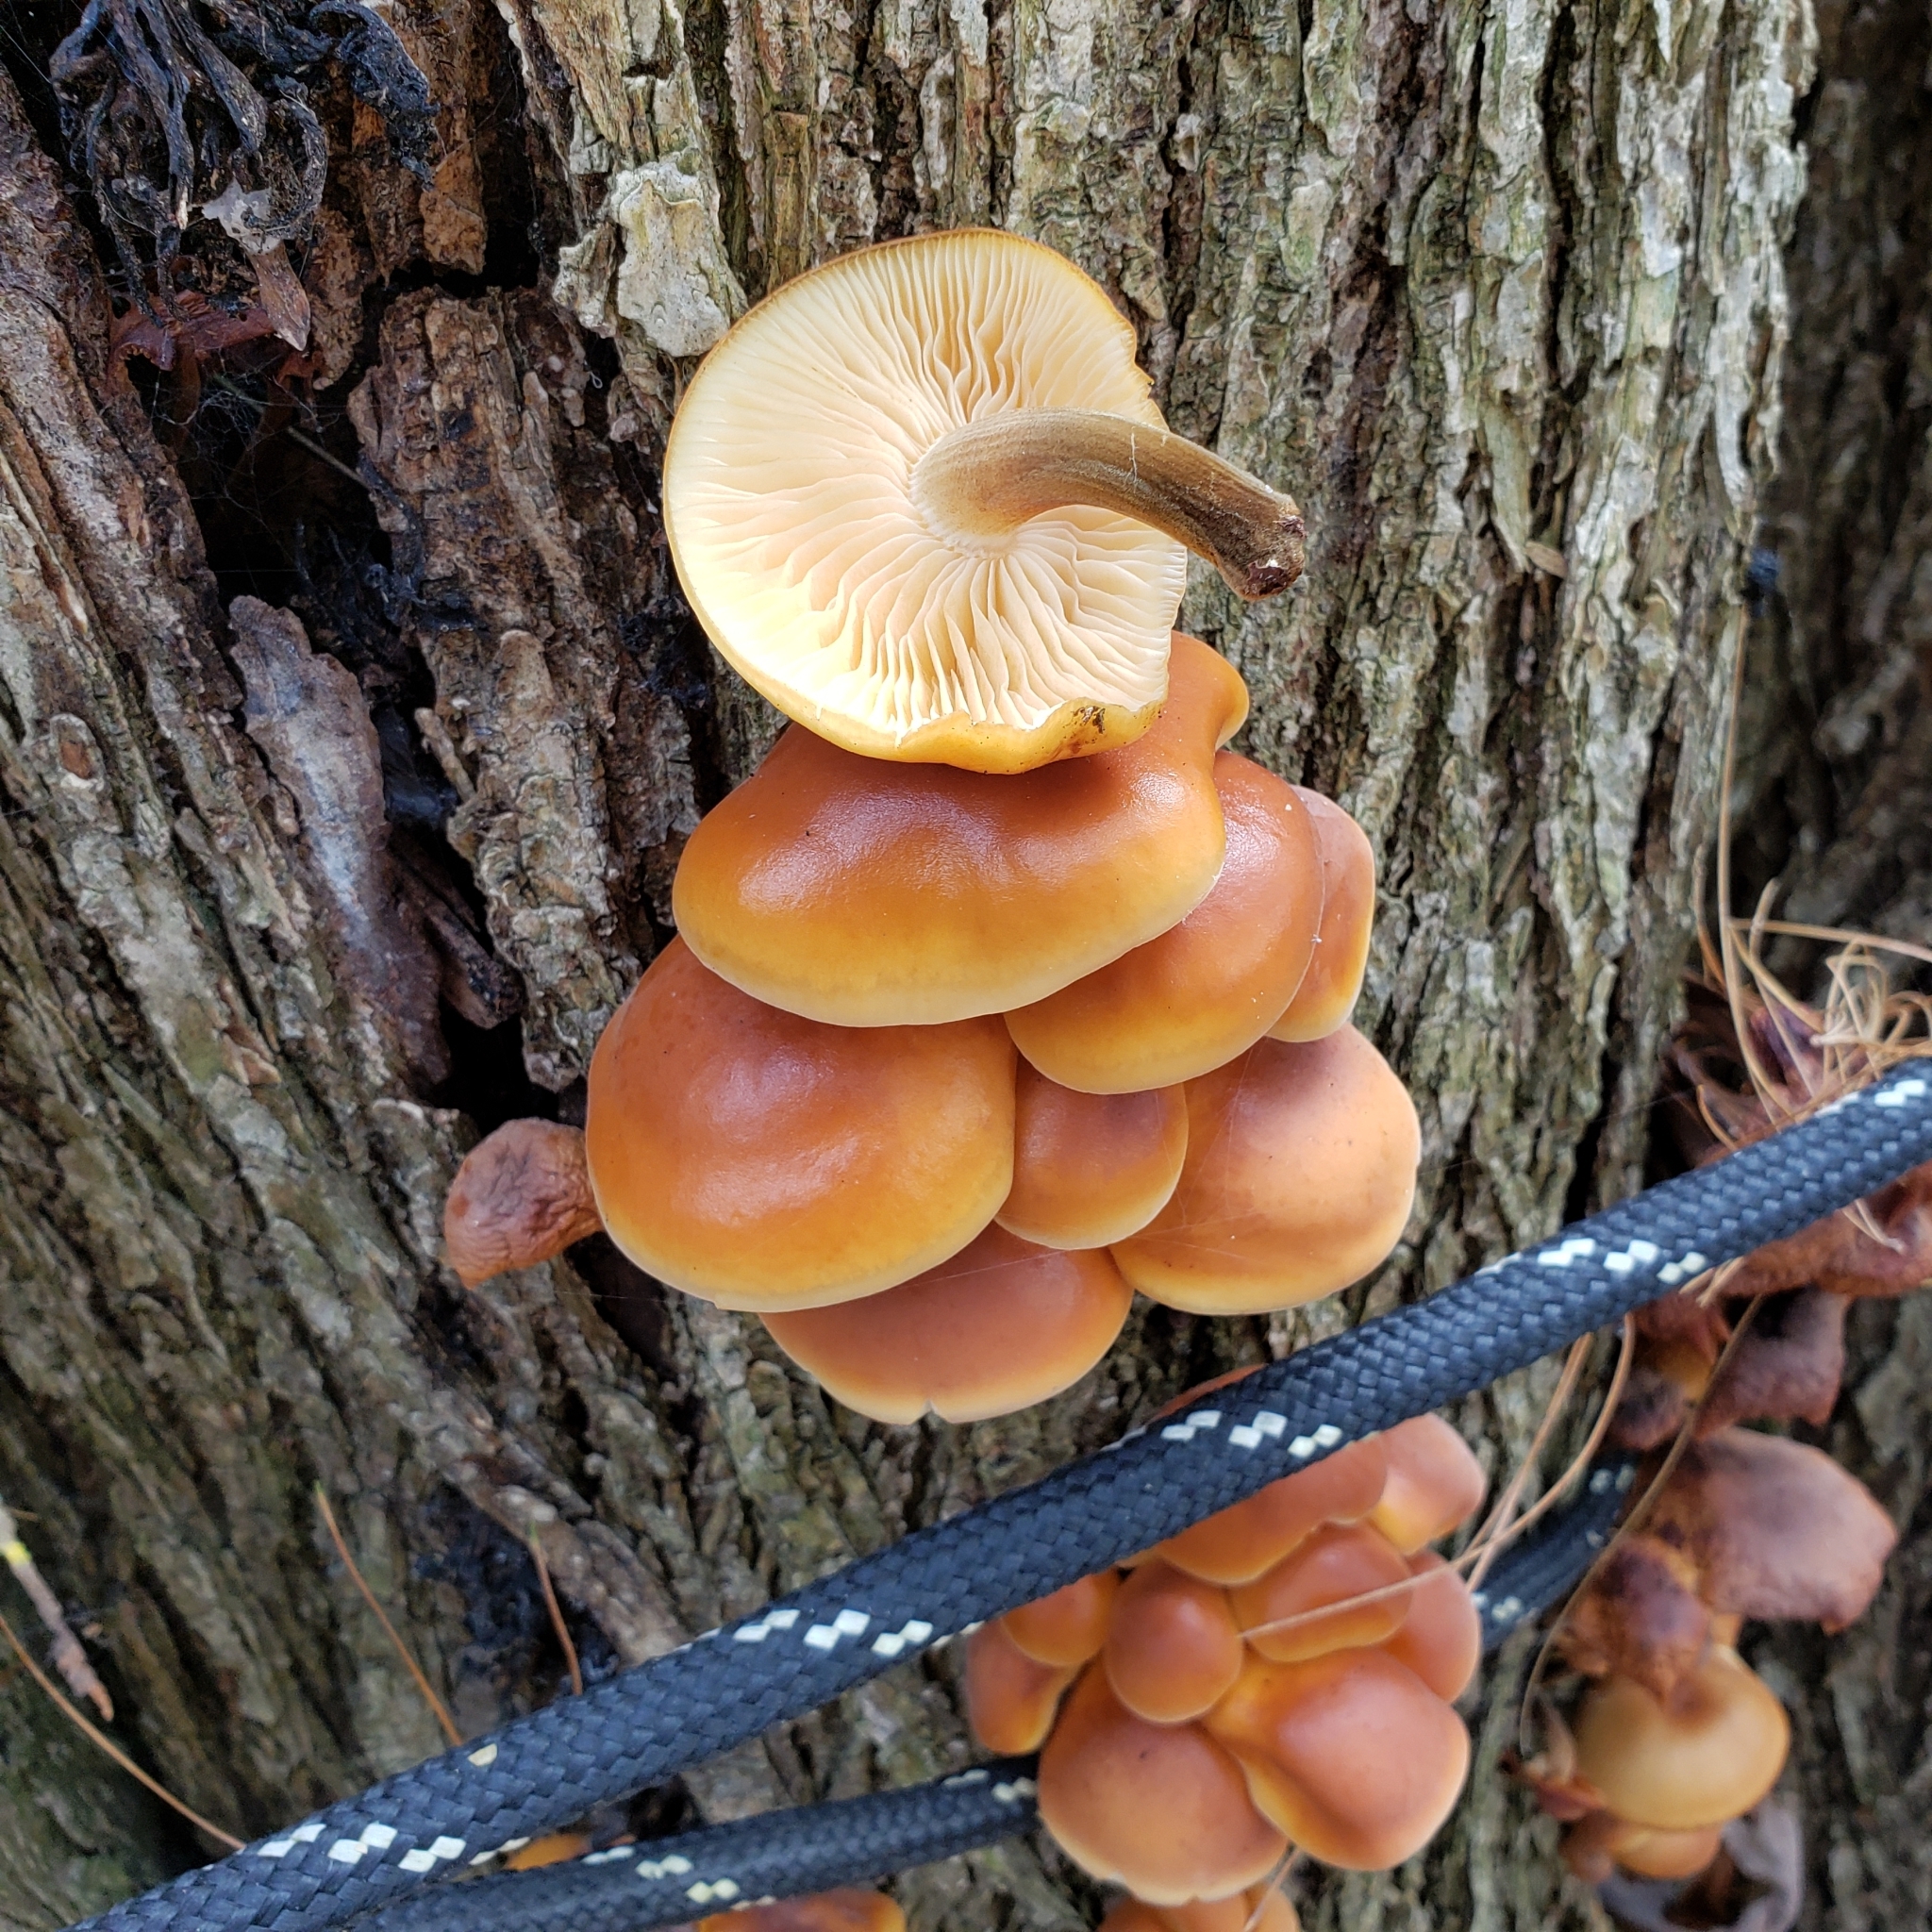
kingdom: Fungi
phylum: Basidiomycota
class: Agaricomycetes
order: Agaricales
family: Physalacriaceae
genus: Flammulina
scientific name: Flammulina velutipes
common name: Velvet shank
